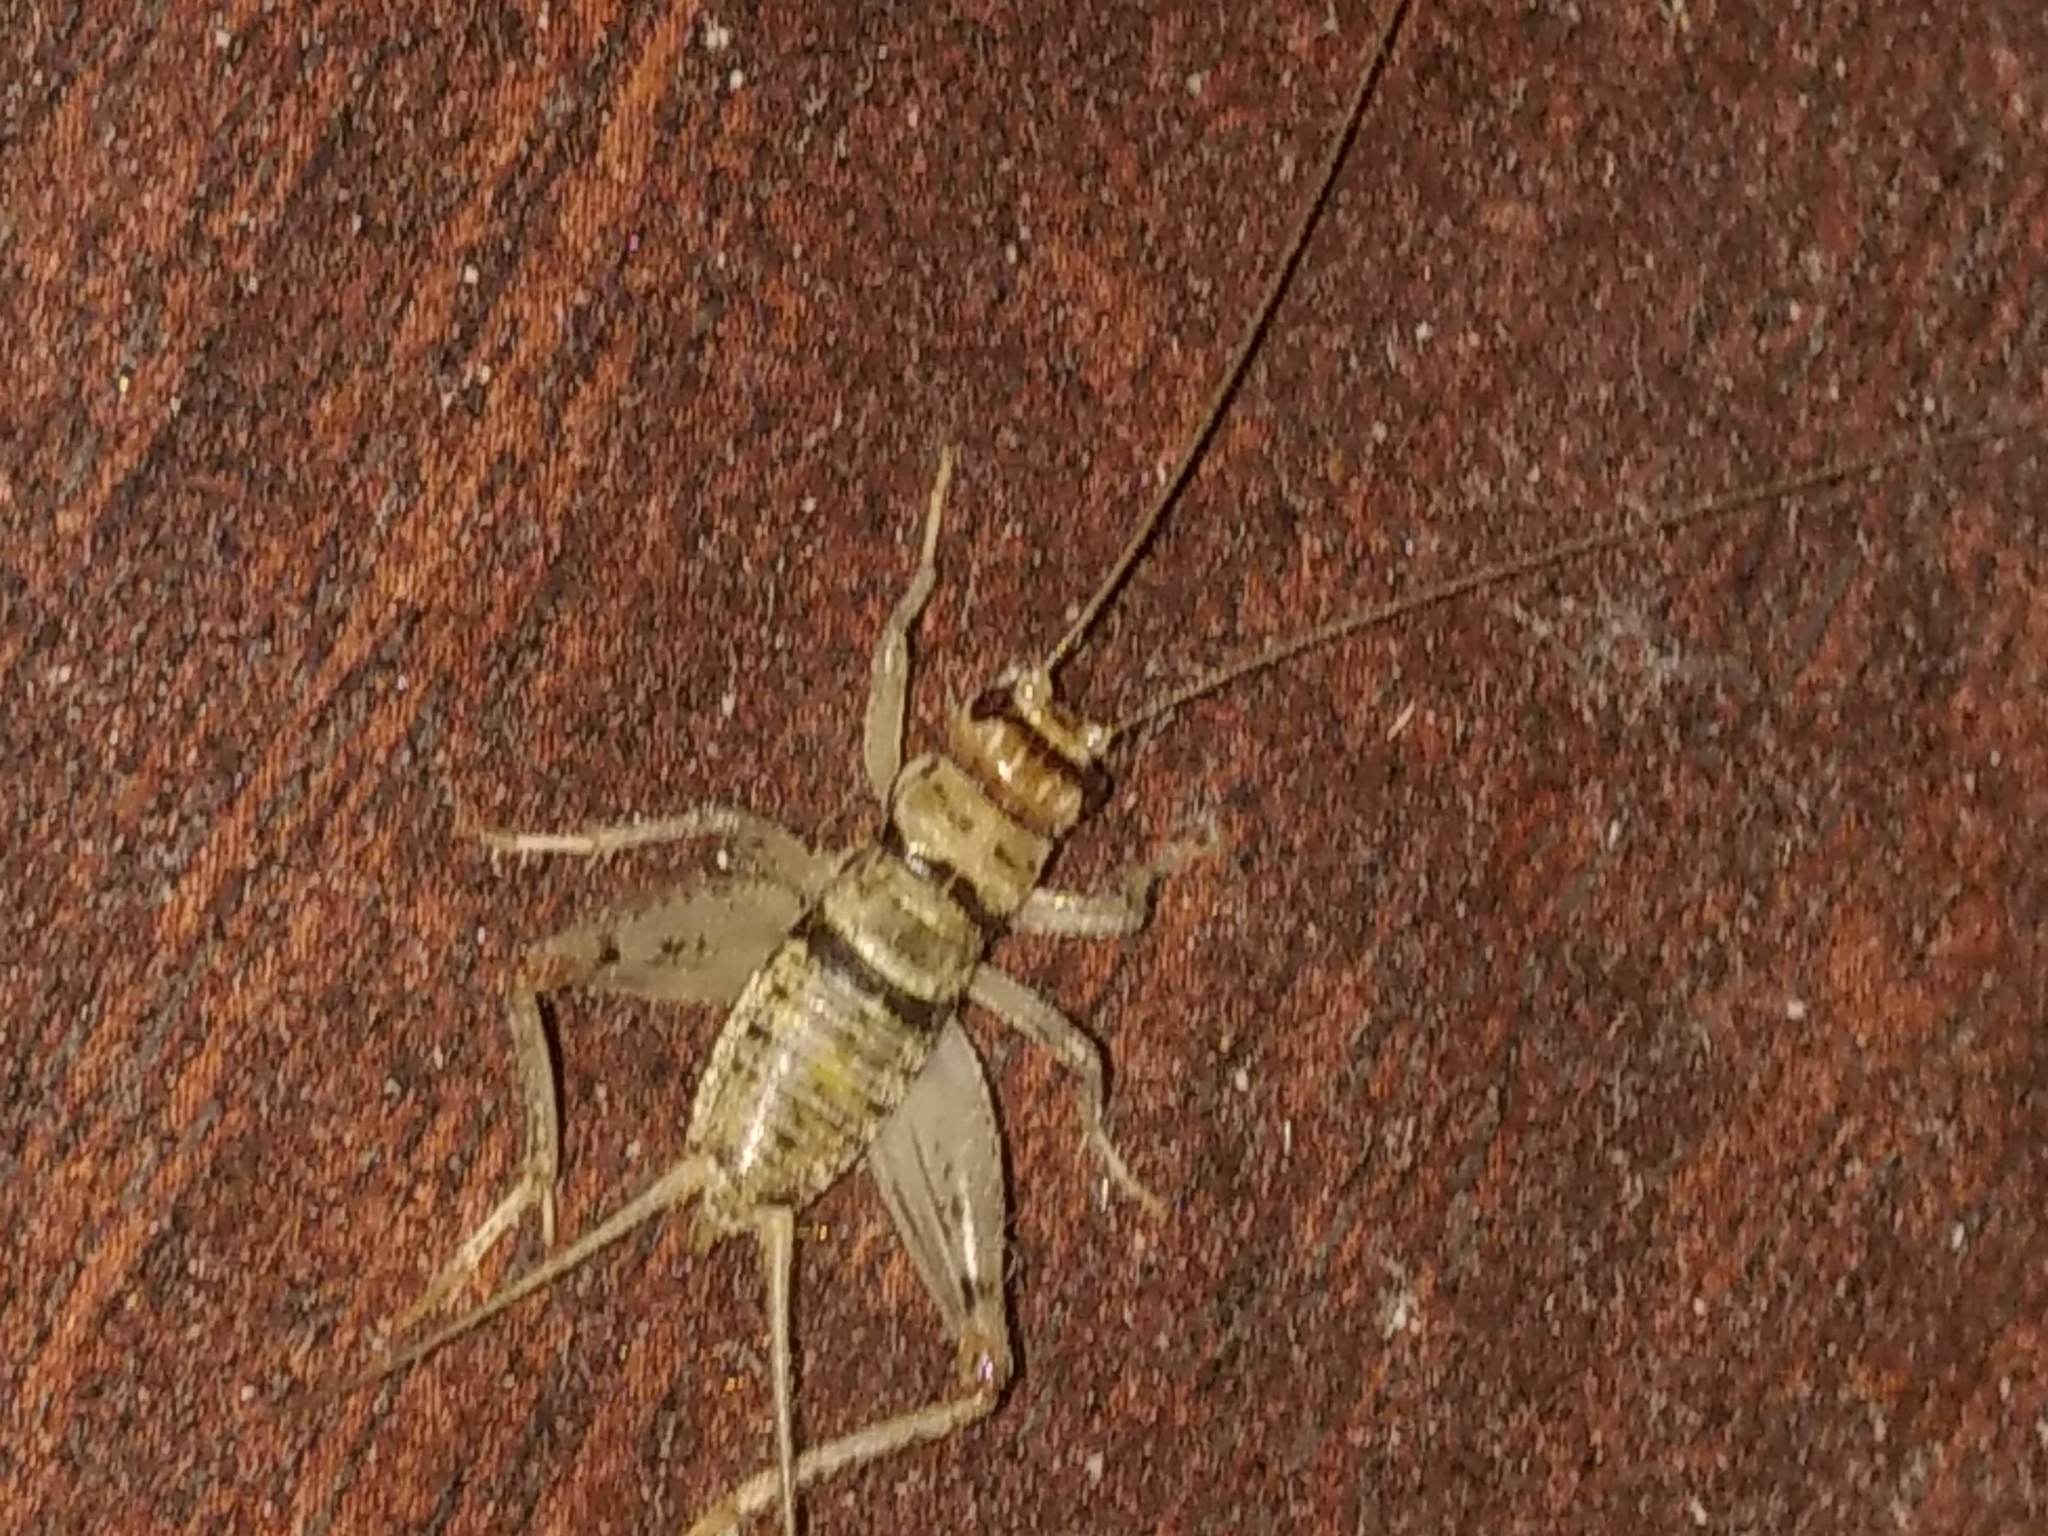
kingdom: Animalia
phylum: Arthropoda
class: Insecta
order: Orthoptera
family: Gryllidae
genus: Gryllodes
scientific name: Gryllodes sigillatus
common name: Tropical house cricket
